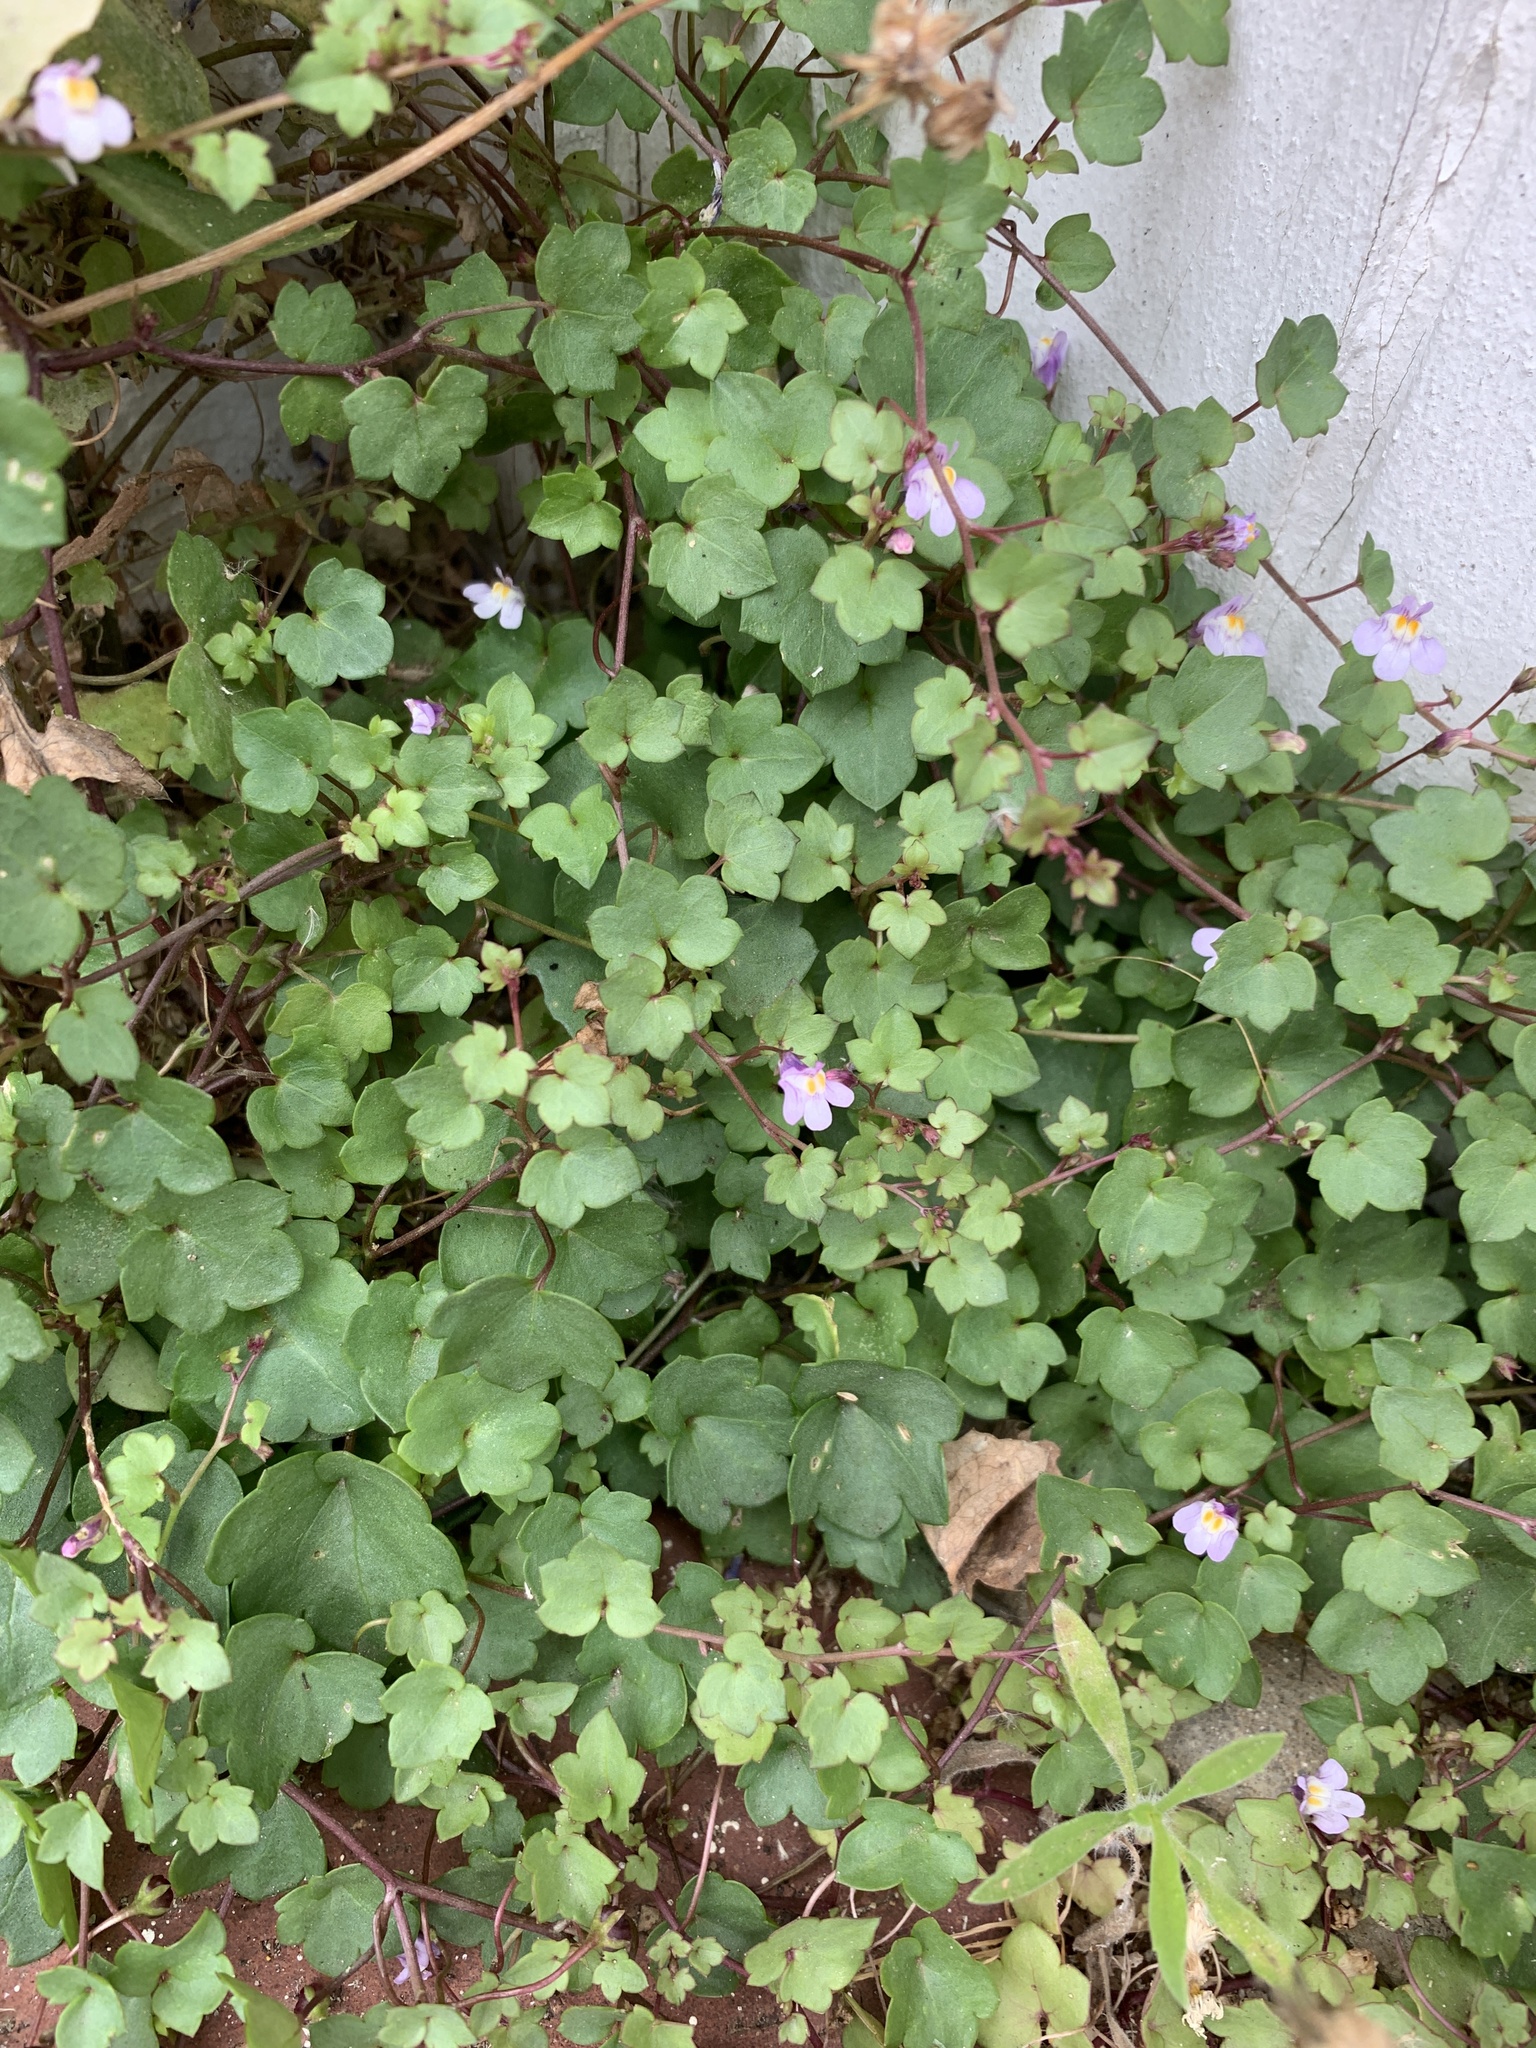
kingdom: Plantae
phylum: Tracheophyta
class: Magnoliopsida
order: Lamiales
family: Plantaginaceae
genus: Cymbalaria
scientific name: Cymbalaria muralis
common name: Ivy-leaved toadflax
